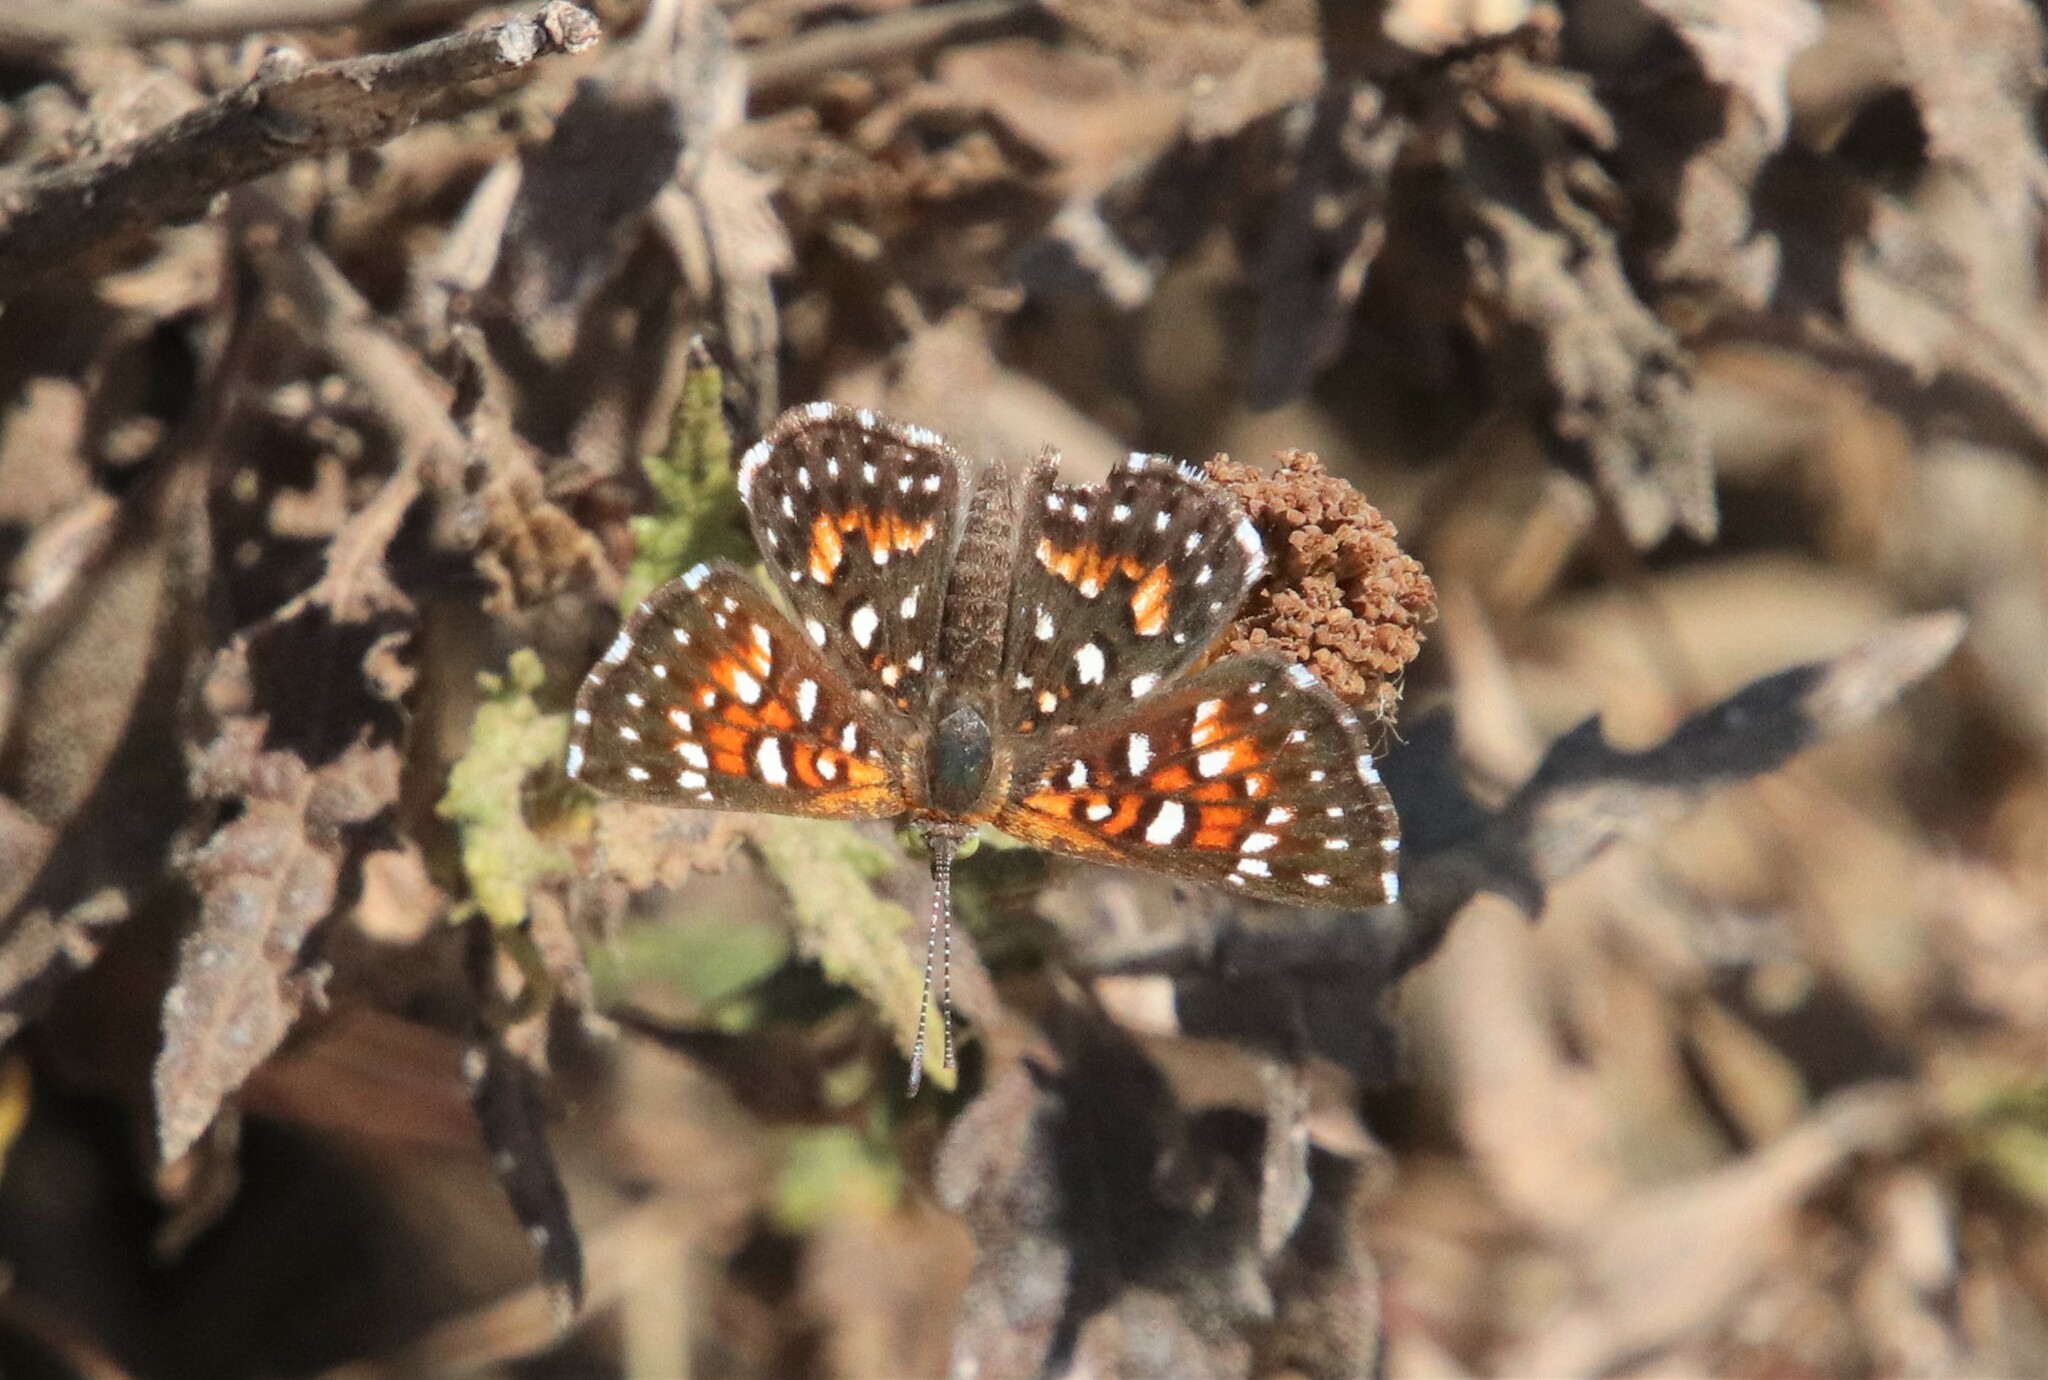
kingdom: Animalia
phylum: Arthropoda
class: Insecta
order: Lepidoptera
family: Riodinidae
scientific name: Riodinidae
